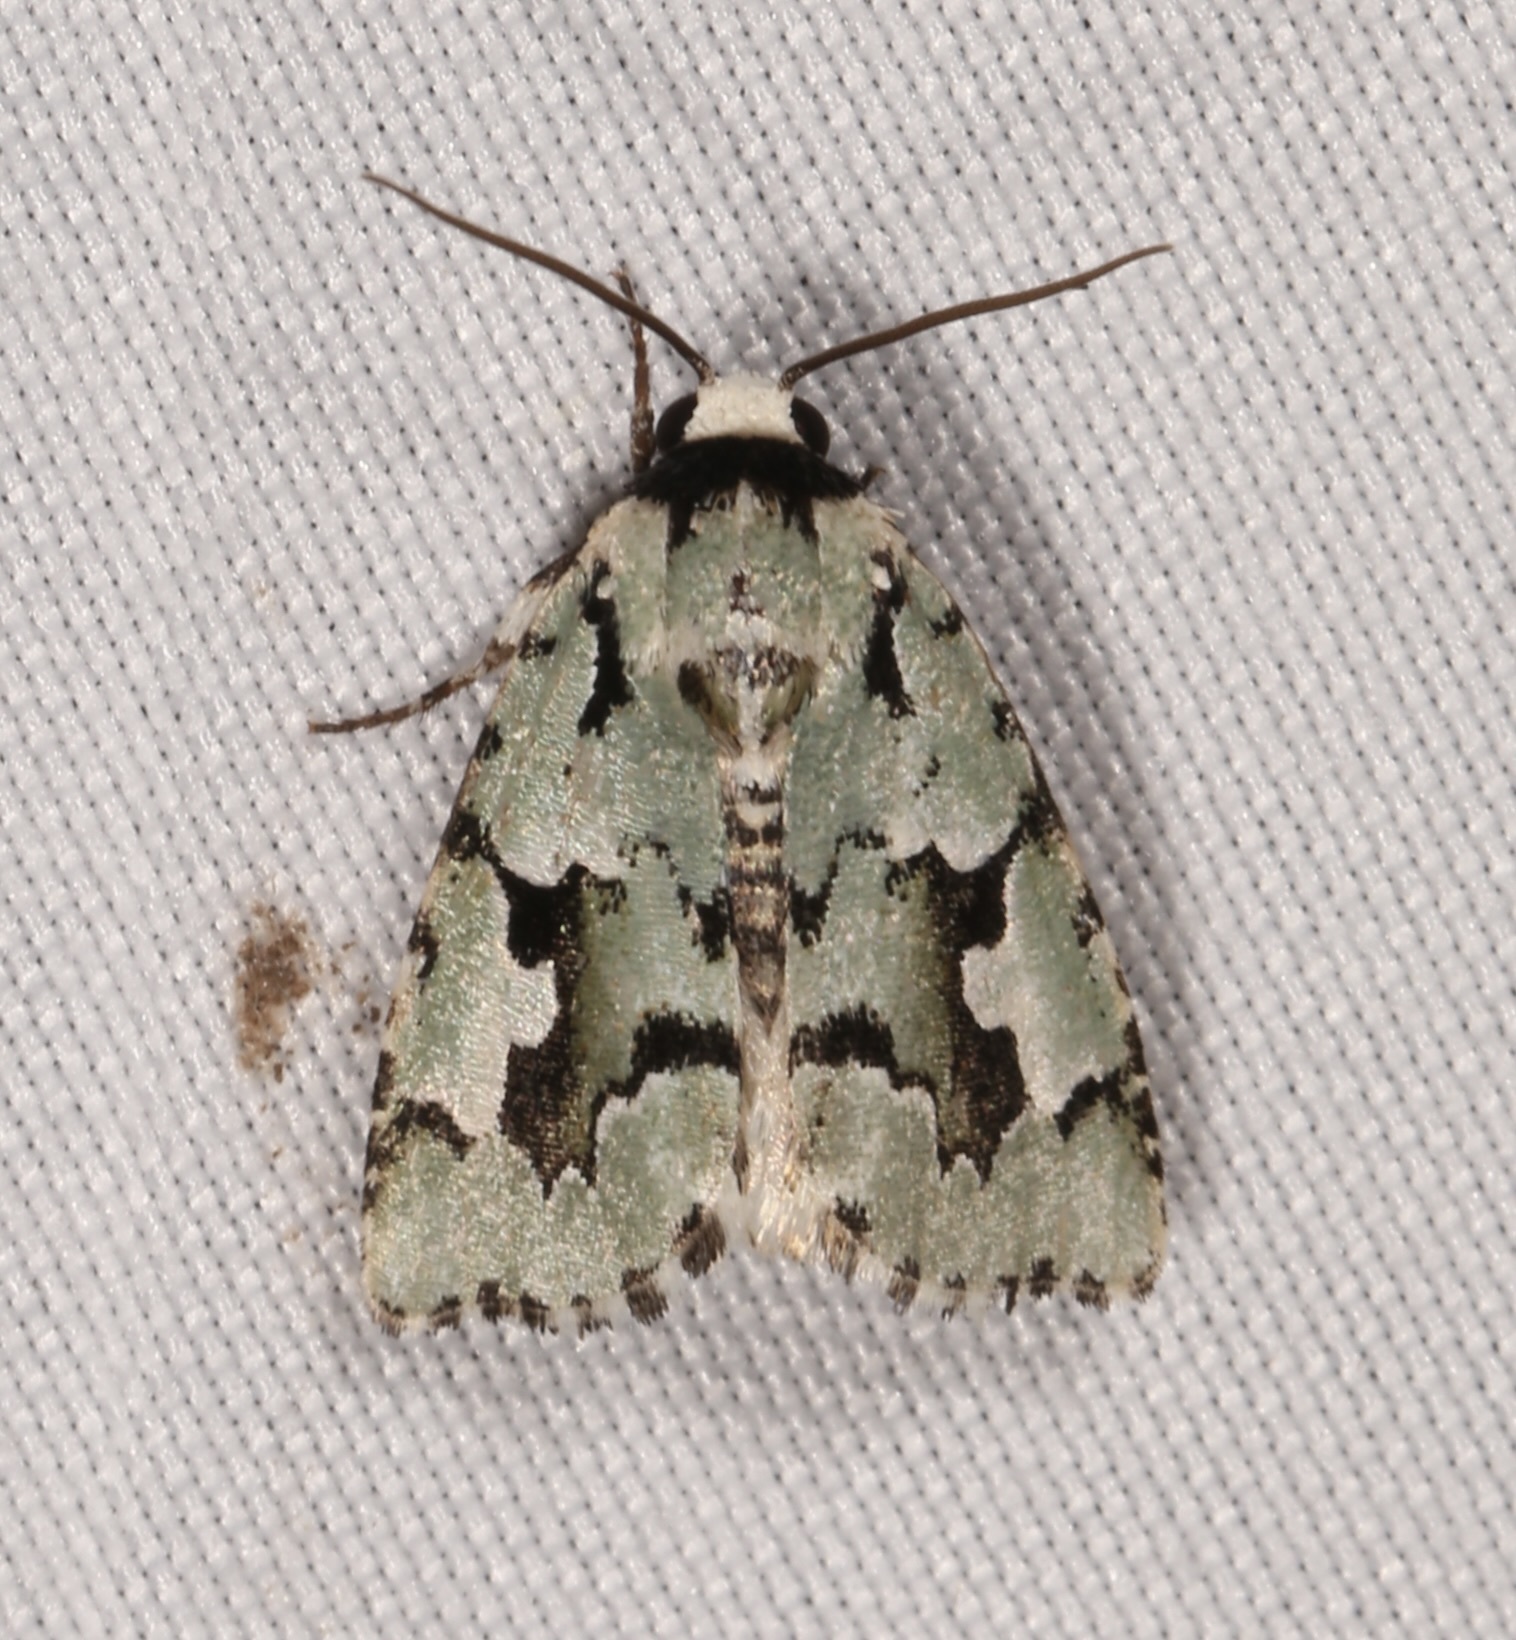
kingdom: Animalia
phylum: Arthropoda
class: Insecta
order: Lepidoptera
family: Noctuidae
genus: Emarginea
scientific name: Emarginea dulcinea
